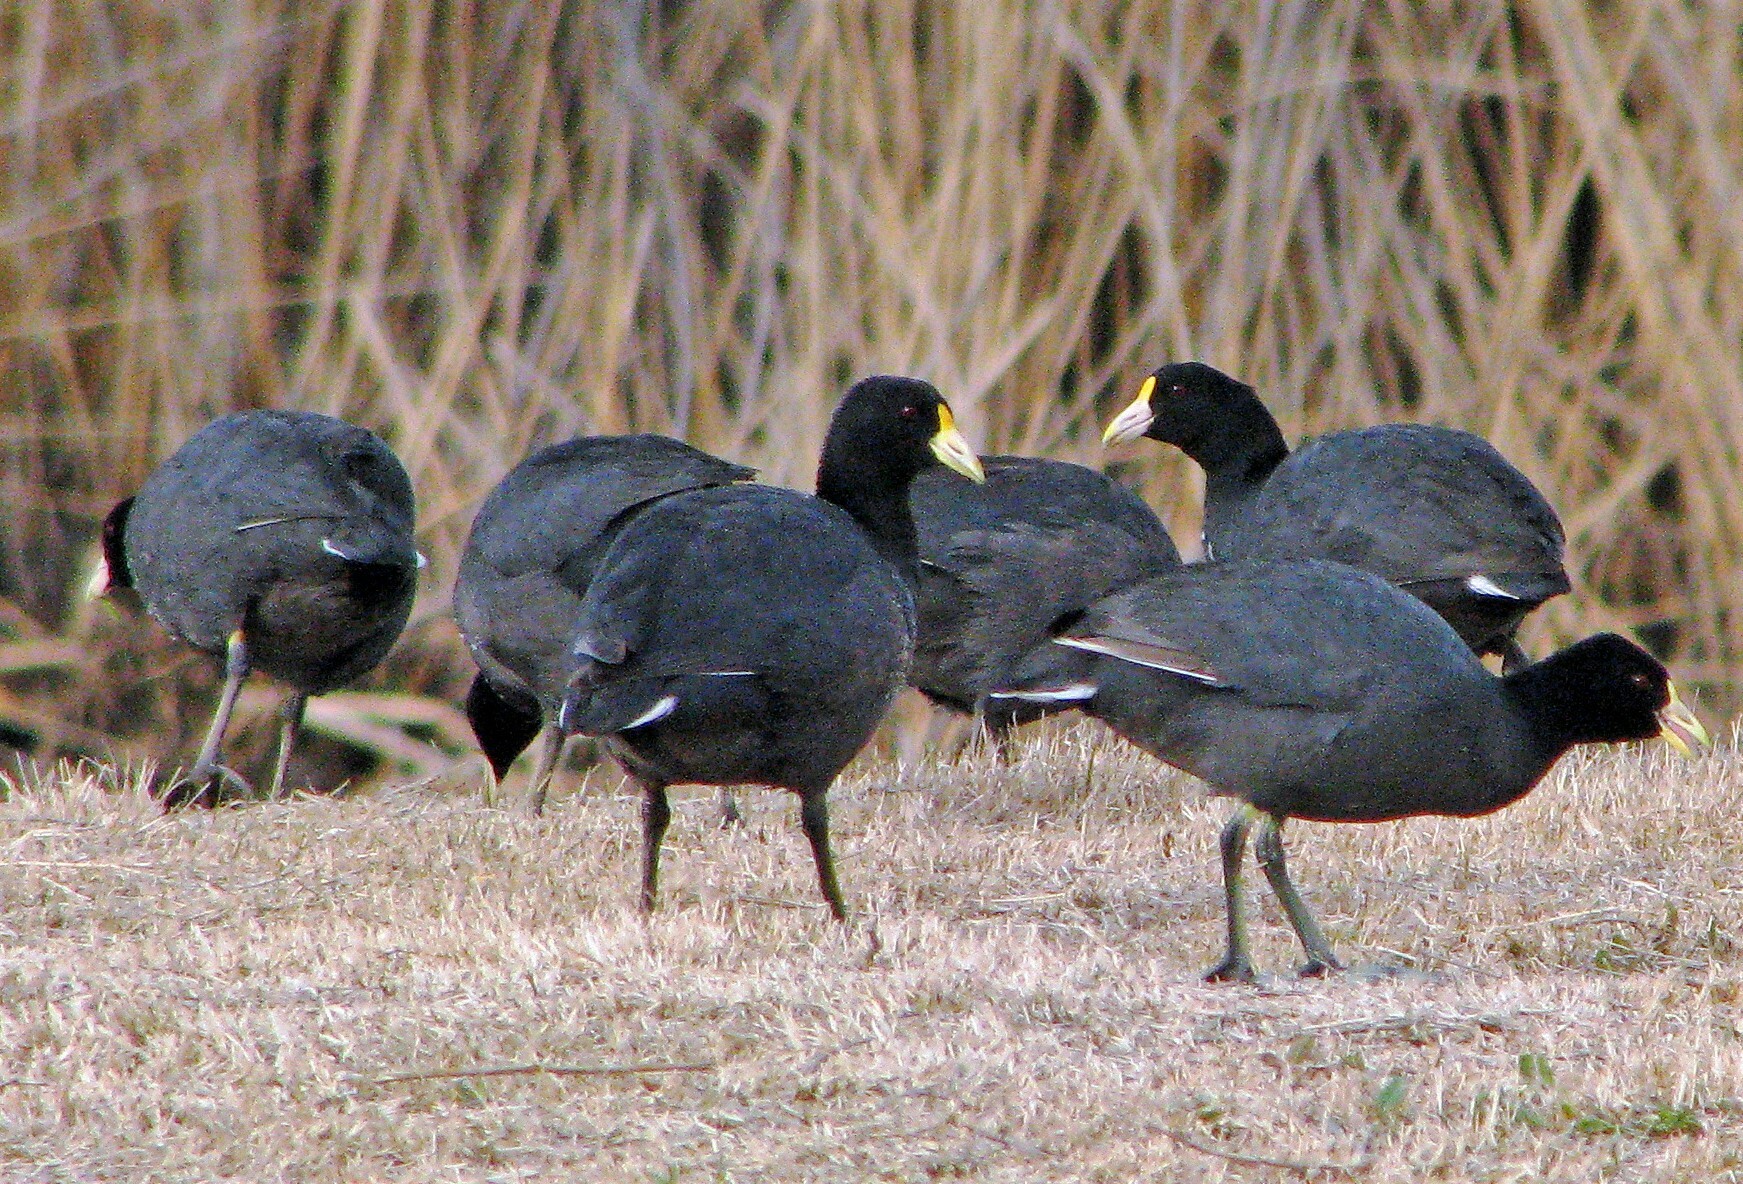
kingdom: Animalia
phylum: Chordata
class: Aves
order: Gruiformes
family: Rallidae
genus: Fulica
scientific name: Fulica leucoptera
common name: White-winged coot
